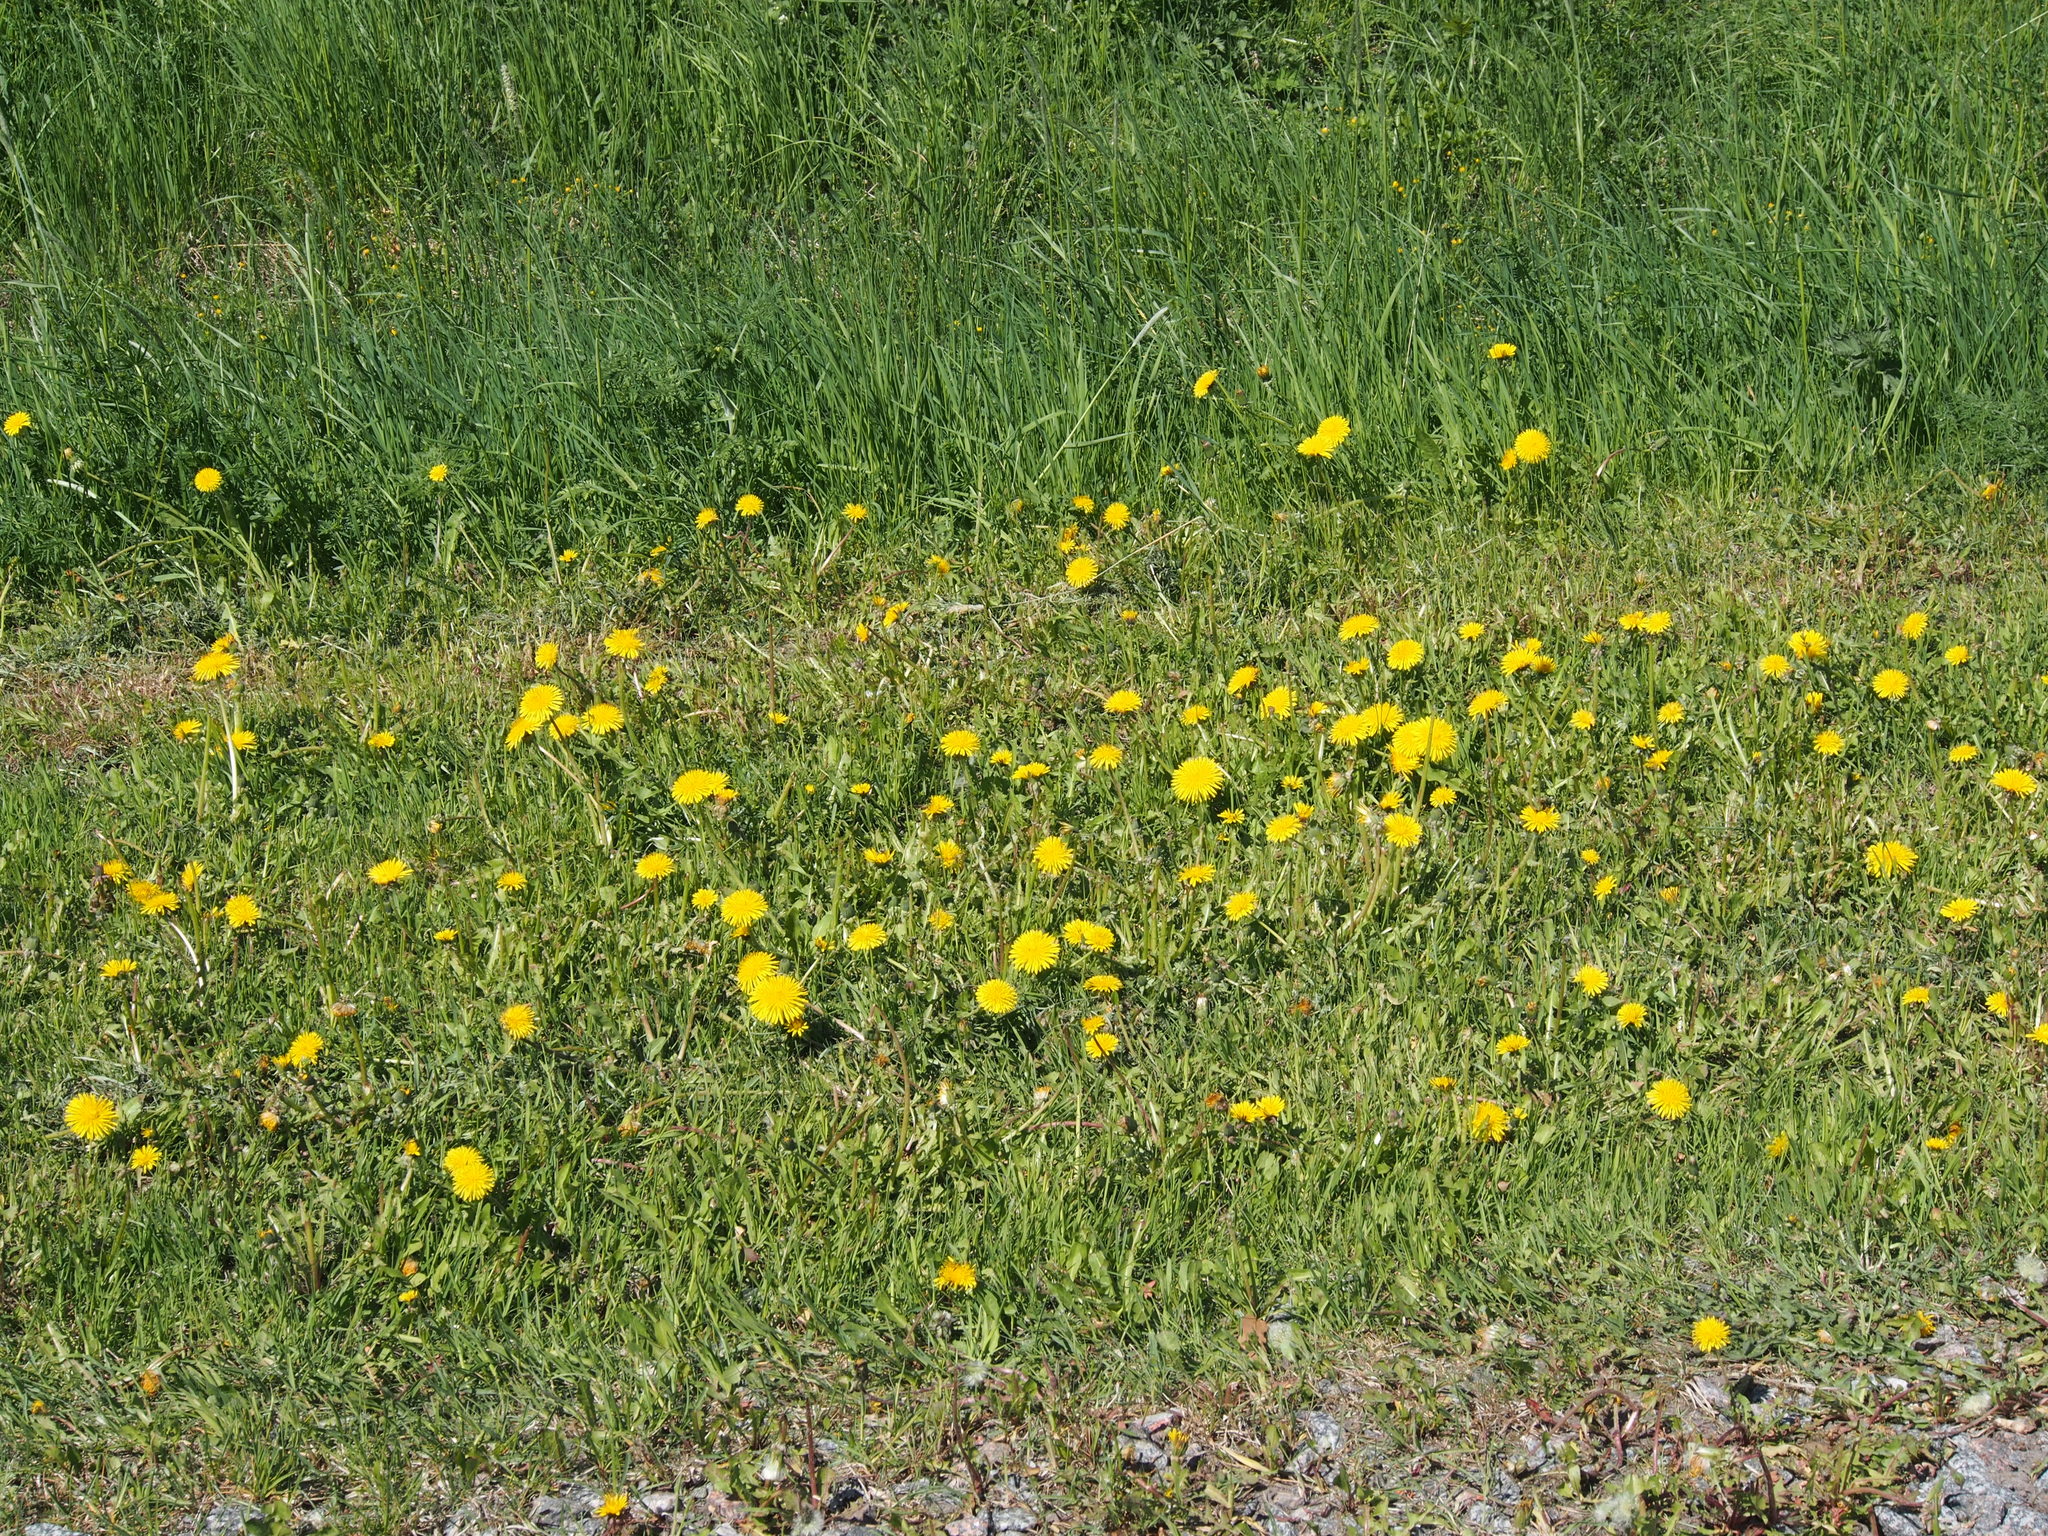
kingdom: Plantae
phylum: Tracheophyta
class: Magnoliopsida
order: Asterales
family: Asteraceae
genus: Taraxacum
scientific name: Taraxacum officinale
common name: Common dandelion
